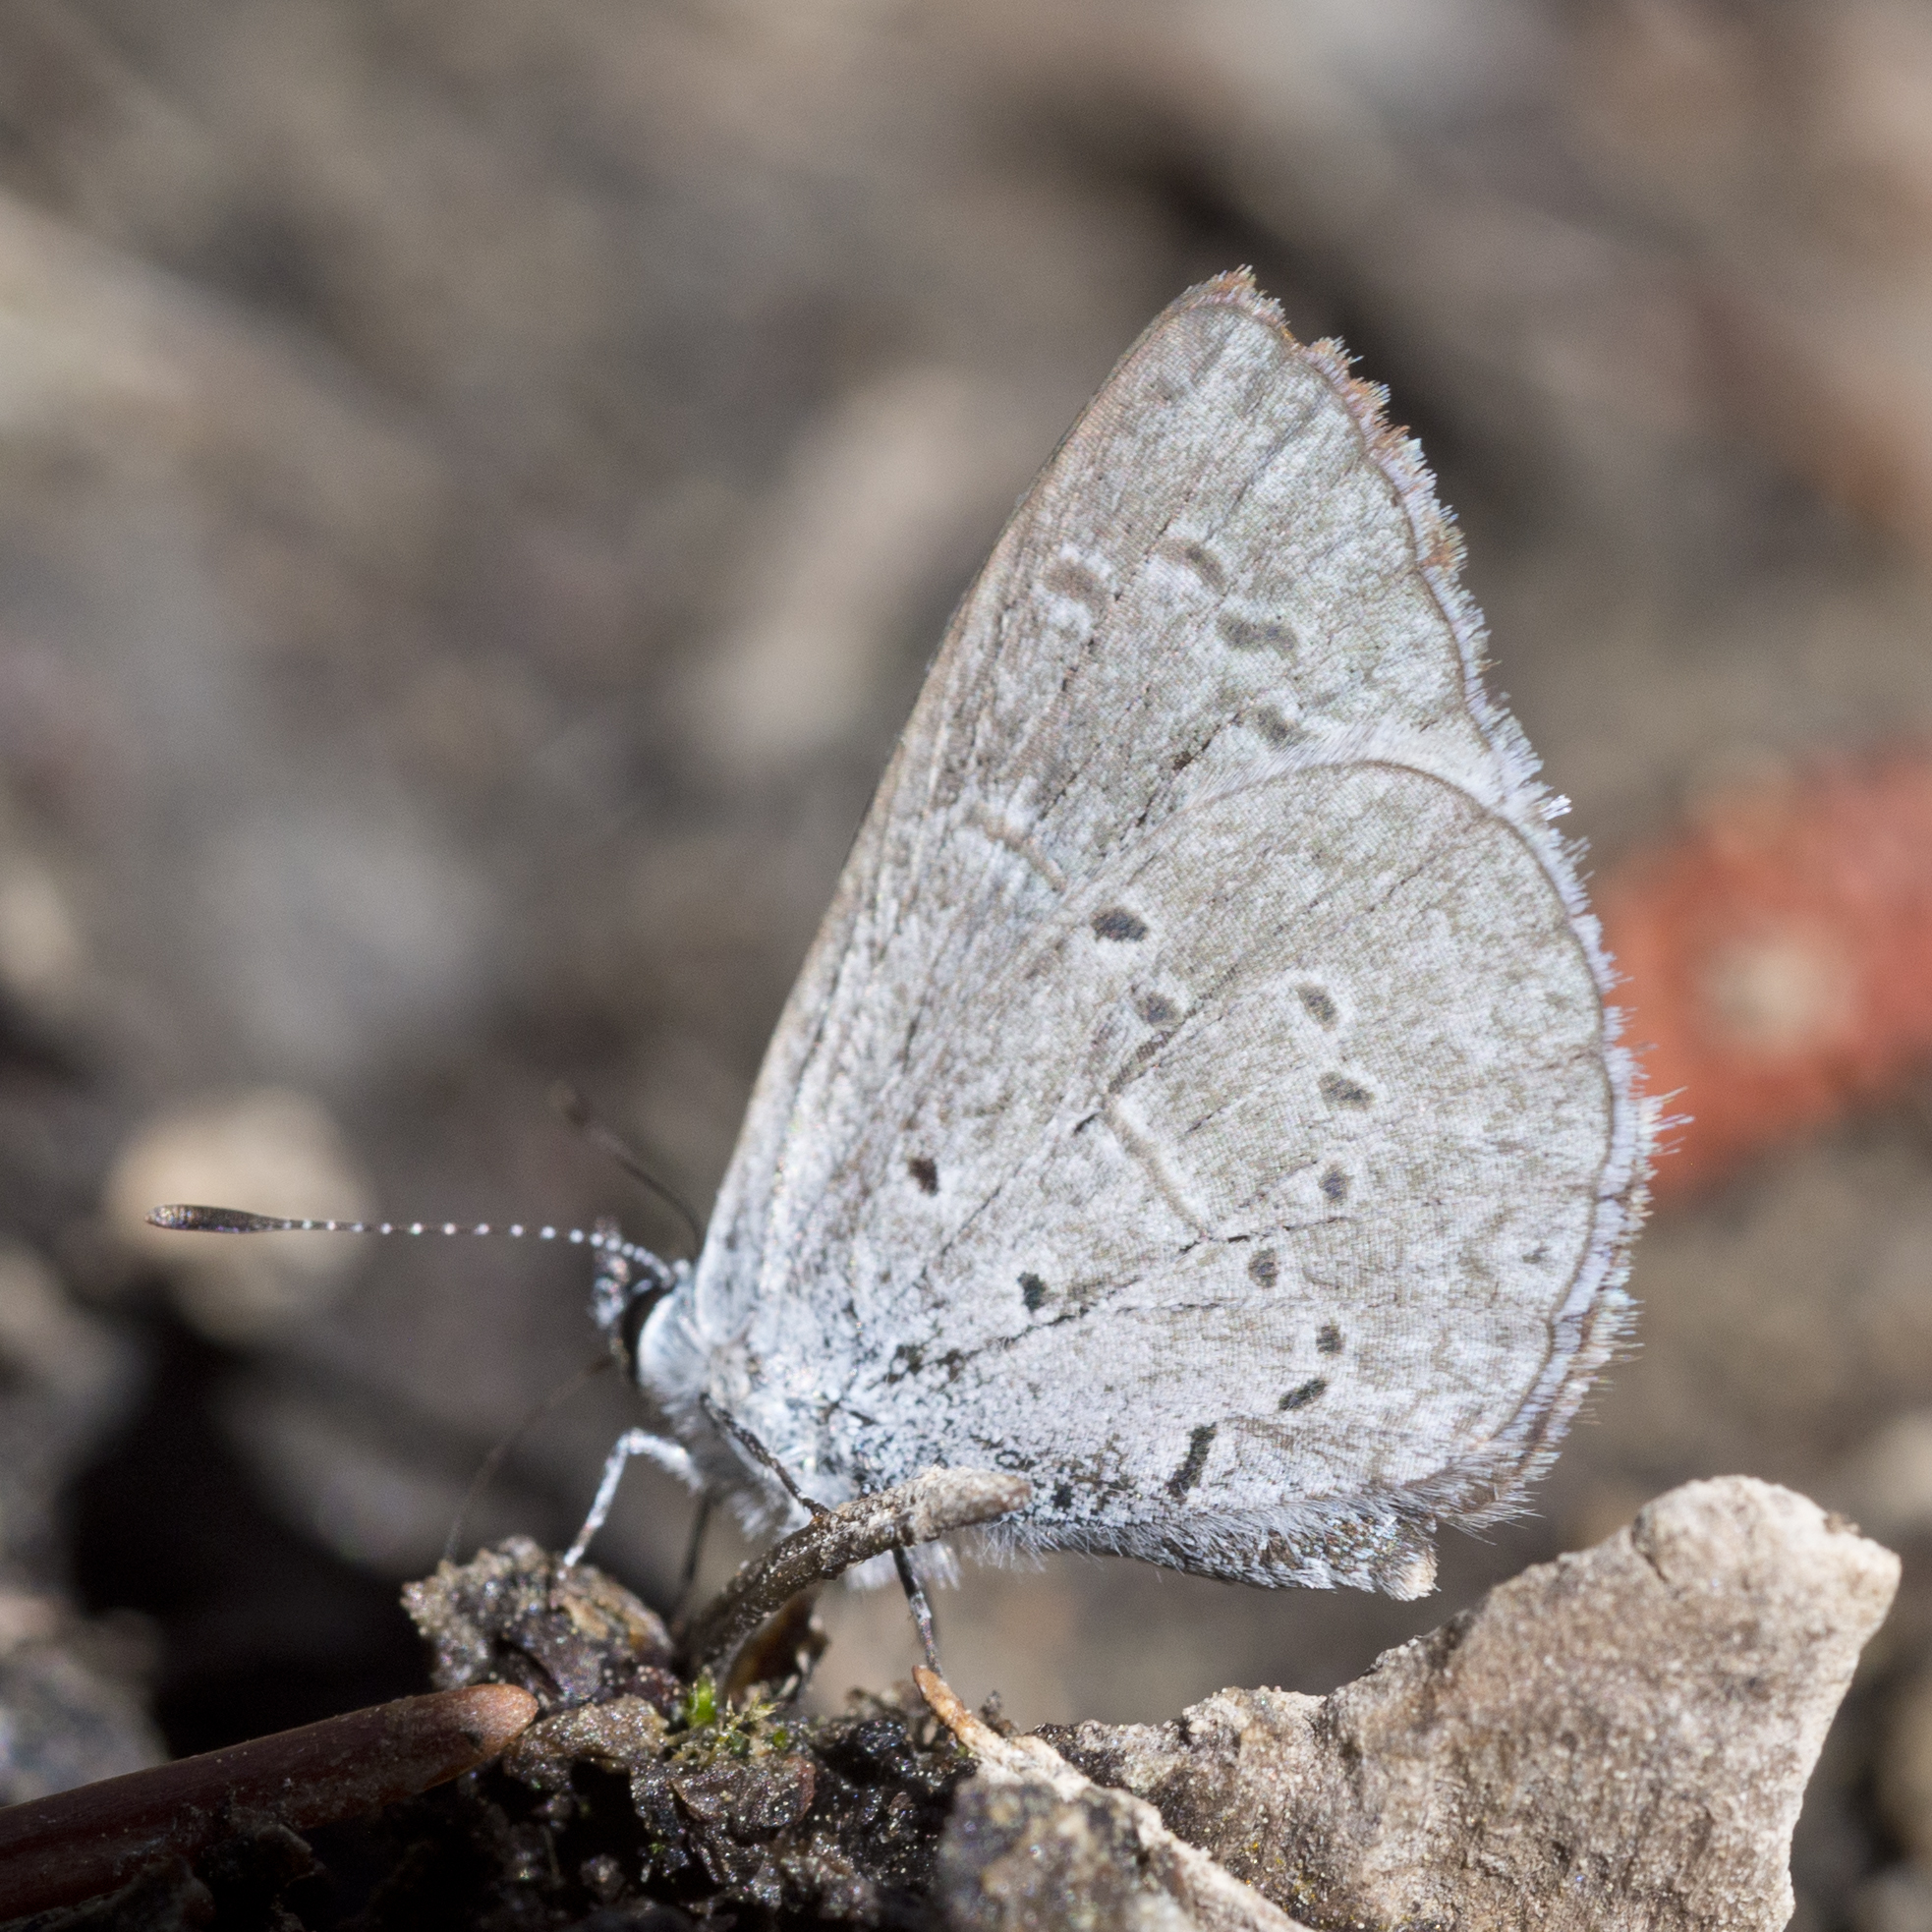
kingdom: Animalia
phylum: Arthropoda
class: Insecta
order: Lepidoptera
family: Lycaenidae
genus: Celastrina
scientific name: Celastrina argiolus
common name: Holly blue
